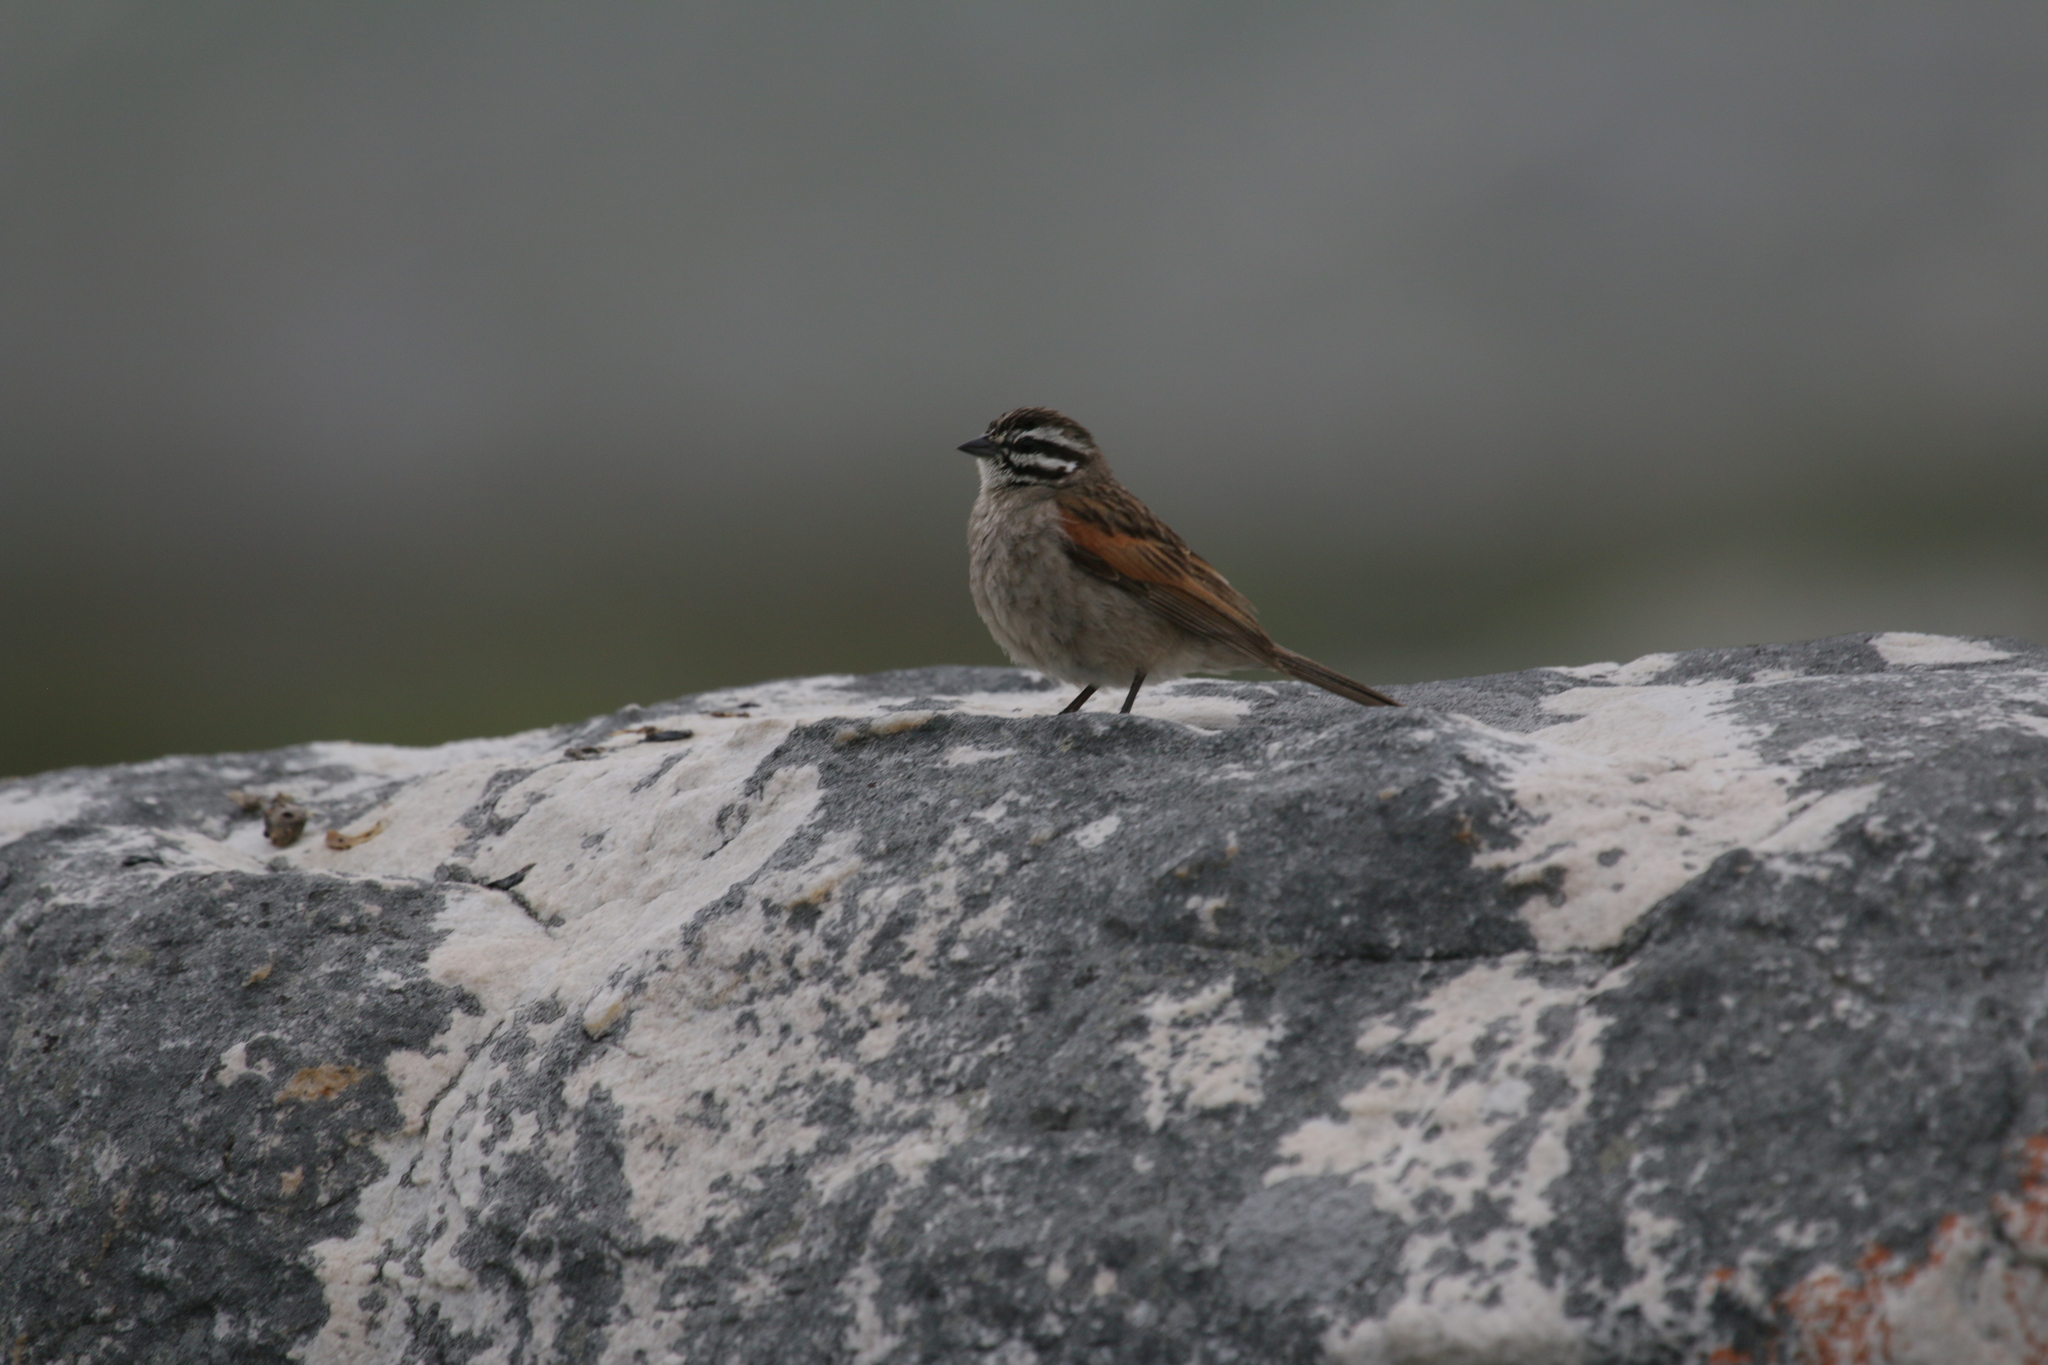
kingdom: Animalia
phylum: Chordata
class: Aves
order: Passeriformes
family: Emberizidae
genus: Emberiza
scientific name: Emberiza capensis
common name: Cape bunting
